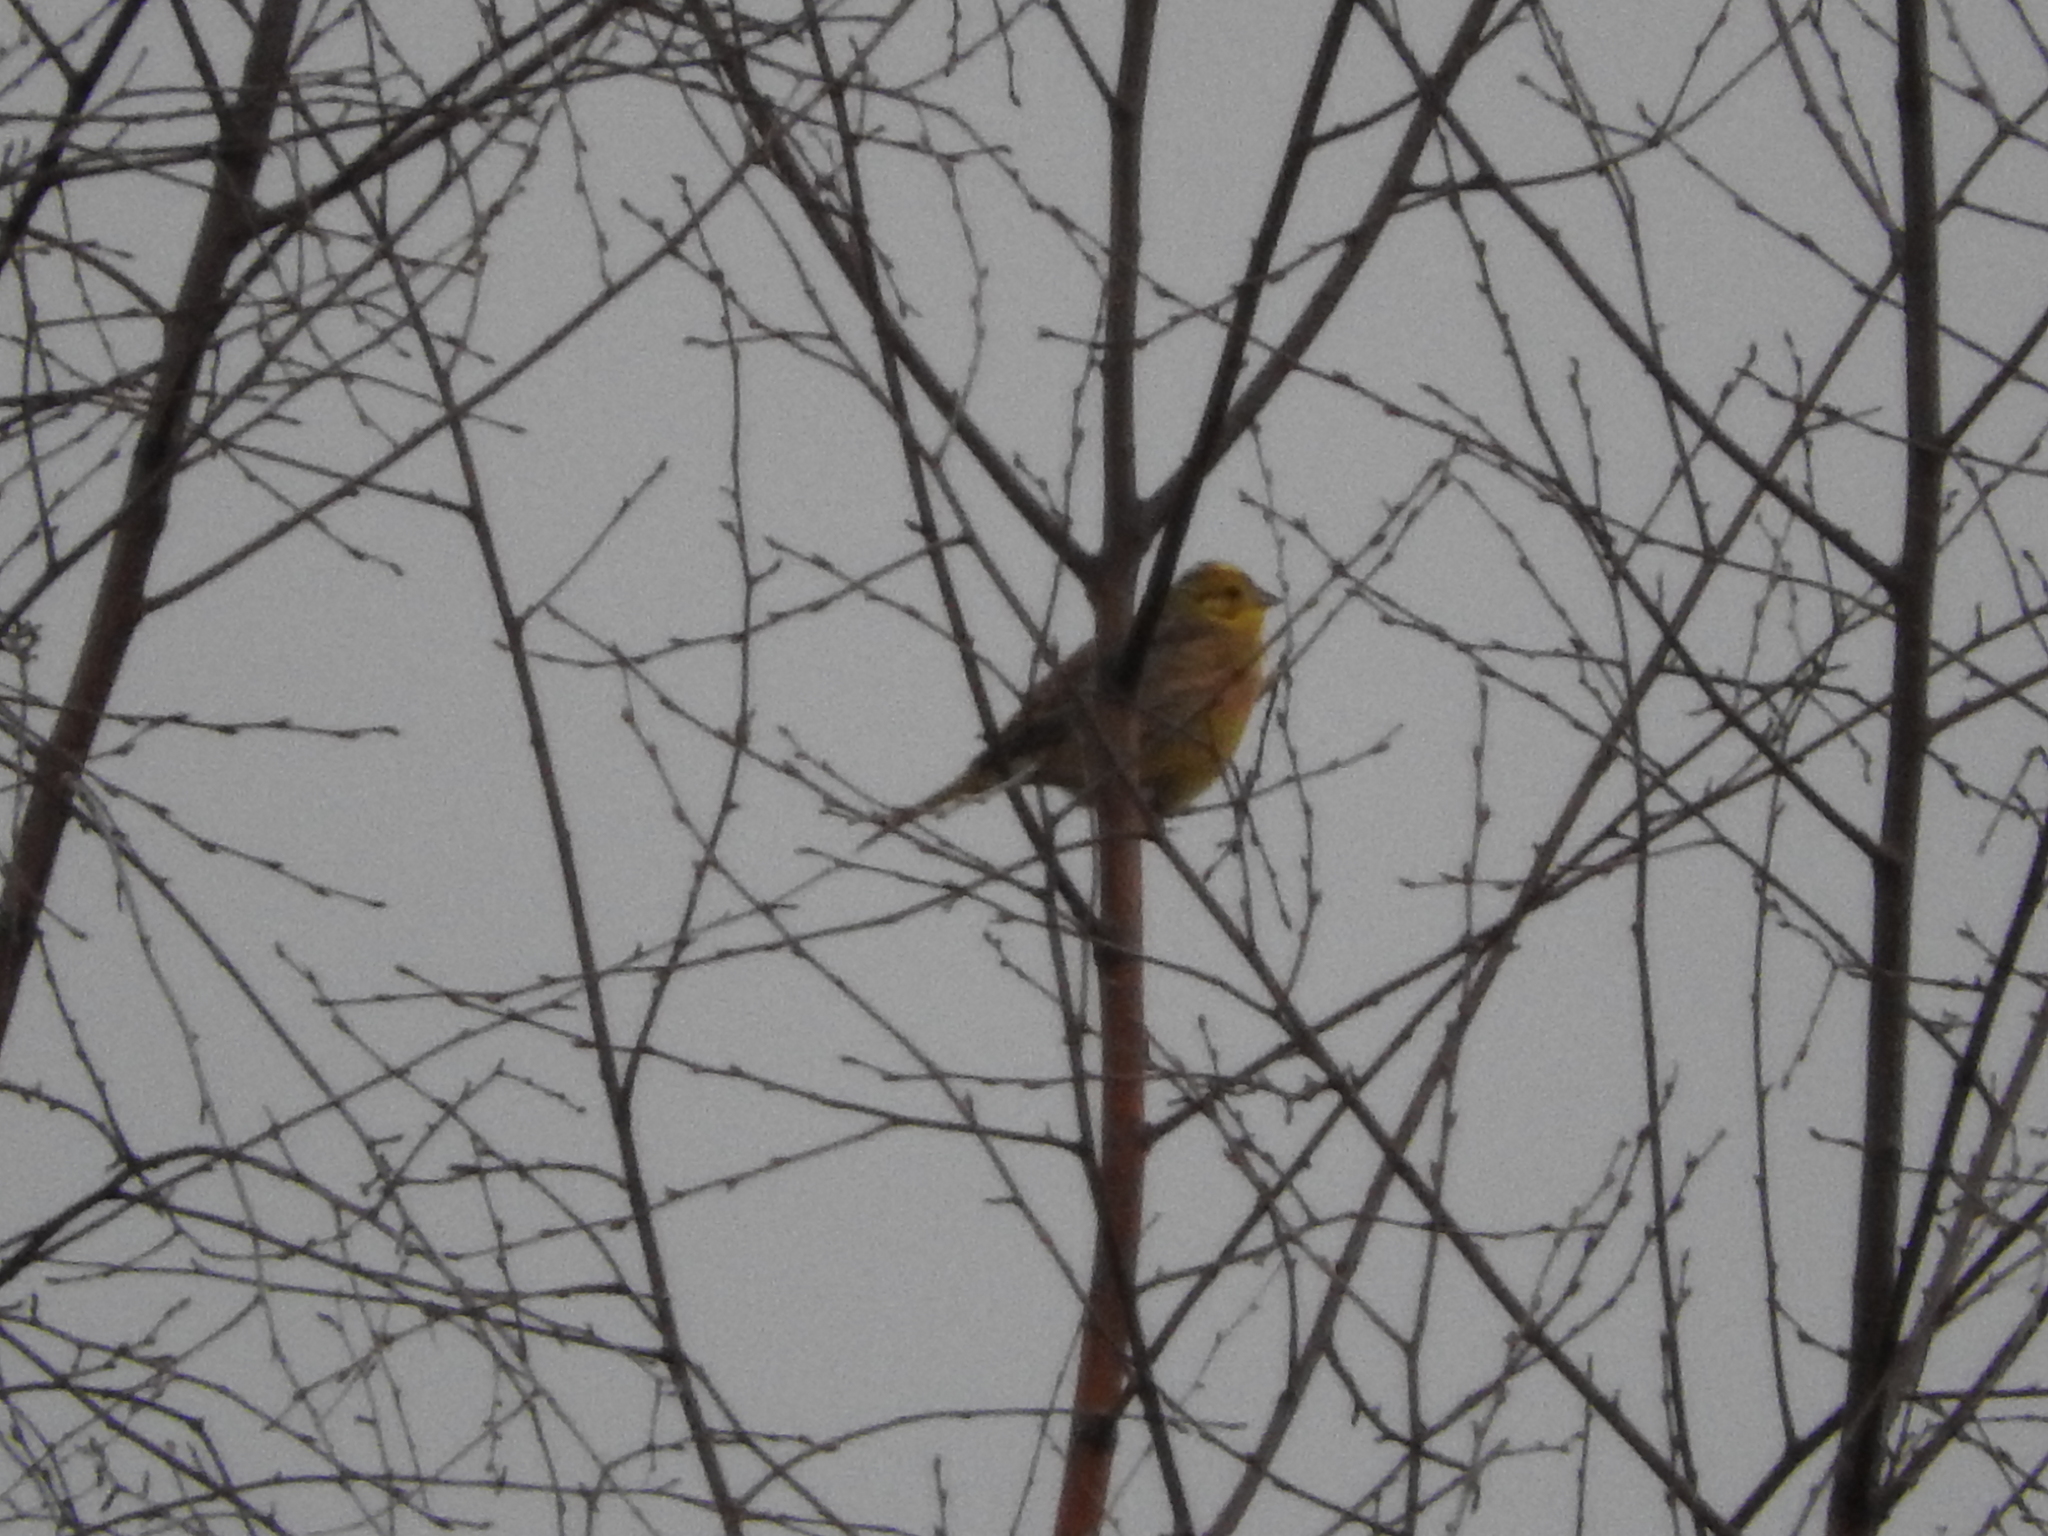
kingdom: Animalia
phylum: Chordata
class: Aves
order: Passeriformes
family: Emberizidae
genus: Emberiza
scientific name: Emberiza citrinella
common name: Yellowhammer
